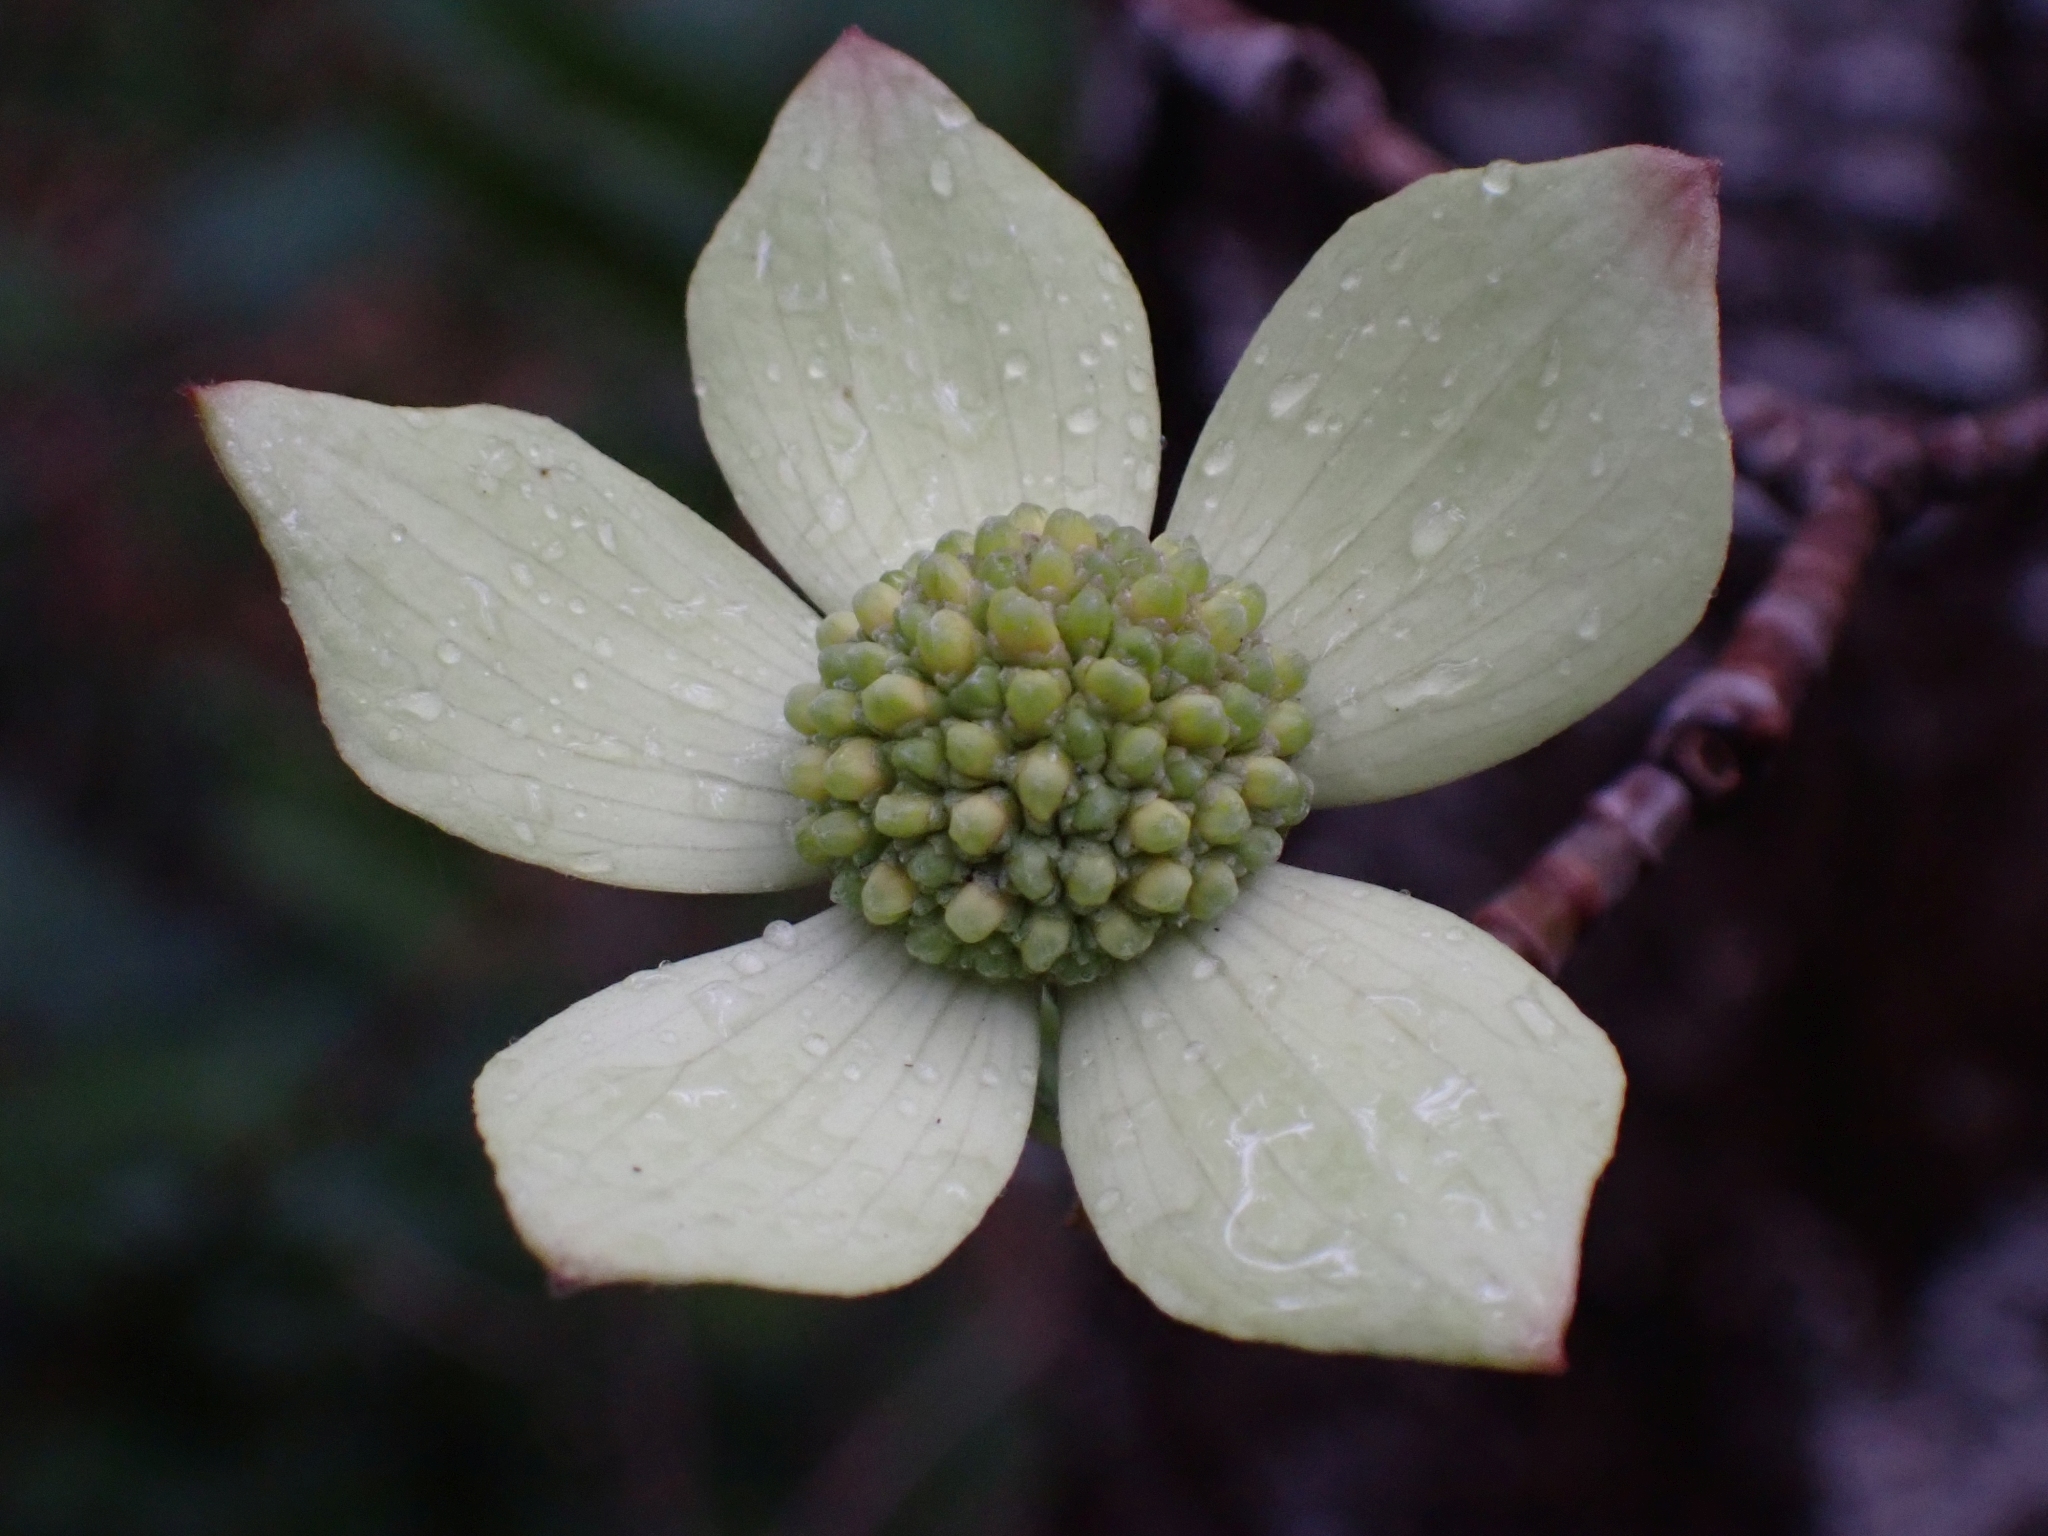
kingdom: Plantae
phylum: Tracheophyta
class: Magnoliopsida
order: Cornales
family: Cornaceae
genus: Cornus
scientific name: Cornus nuttallii
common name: Pacific dogwood
